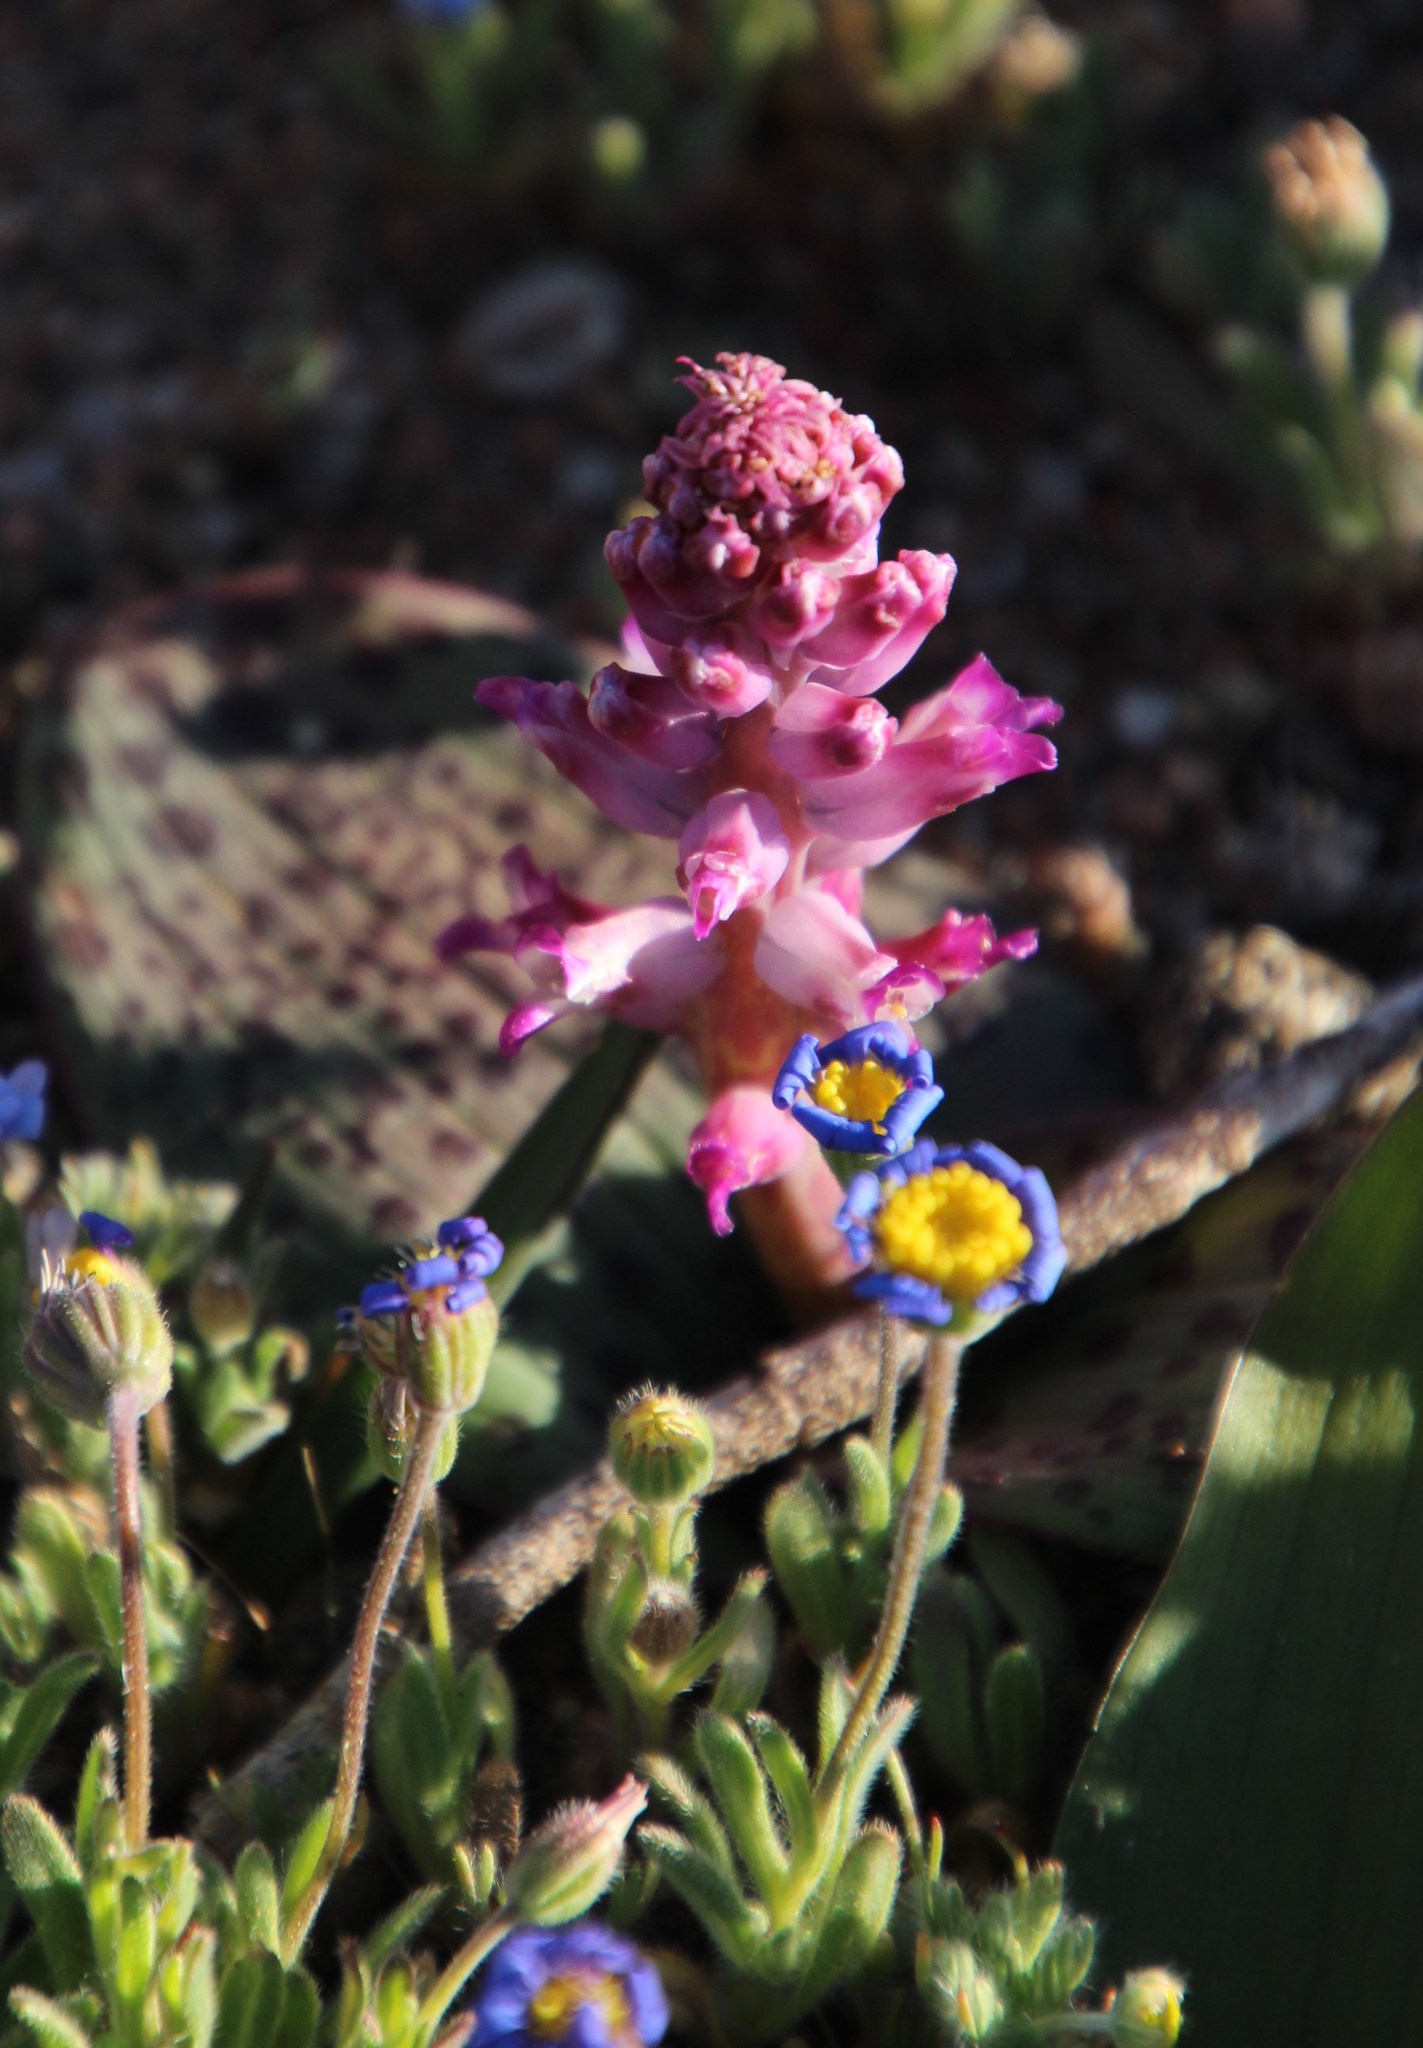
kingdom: Plantae
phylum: Tracheophyta
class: Liliopsida
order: Asparagales
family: Asparagaceae
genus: Lachenalia
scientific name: Lachenalia carnosa
